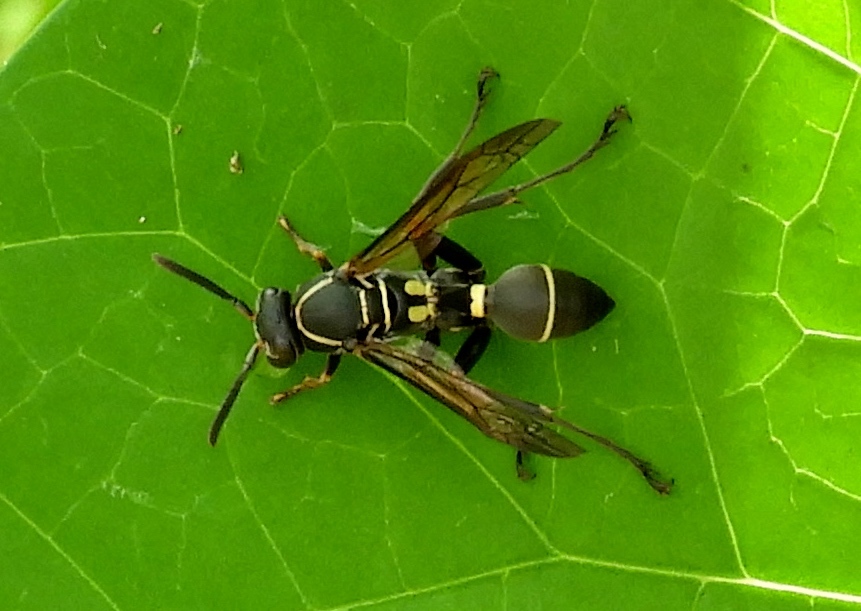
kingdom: Animalia
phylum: Arthropoda
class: Insecta
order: Hymenoptera
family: Vespidae
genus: Mischocyttarus
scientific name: Mischocyttarus
